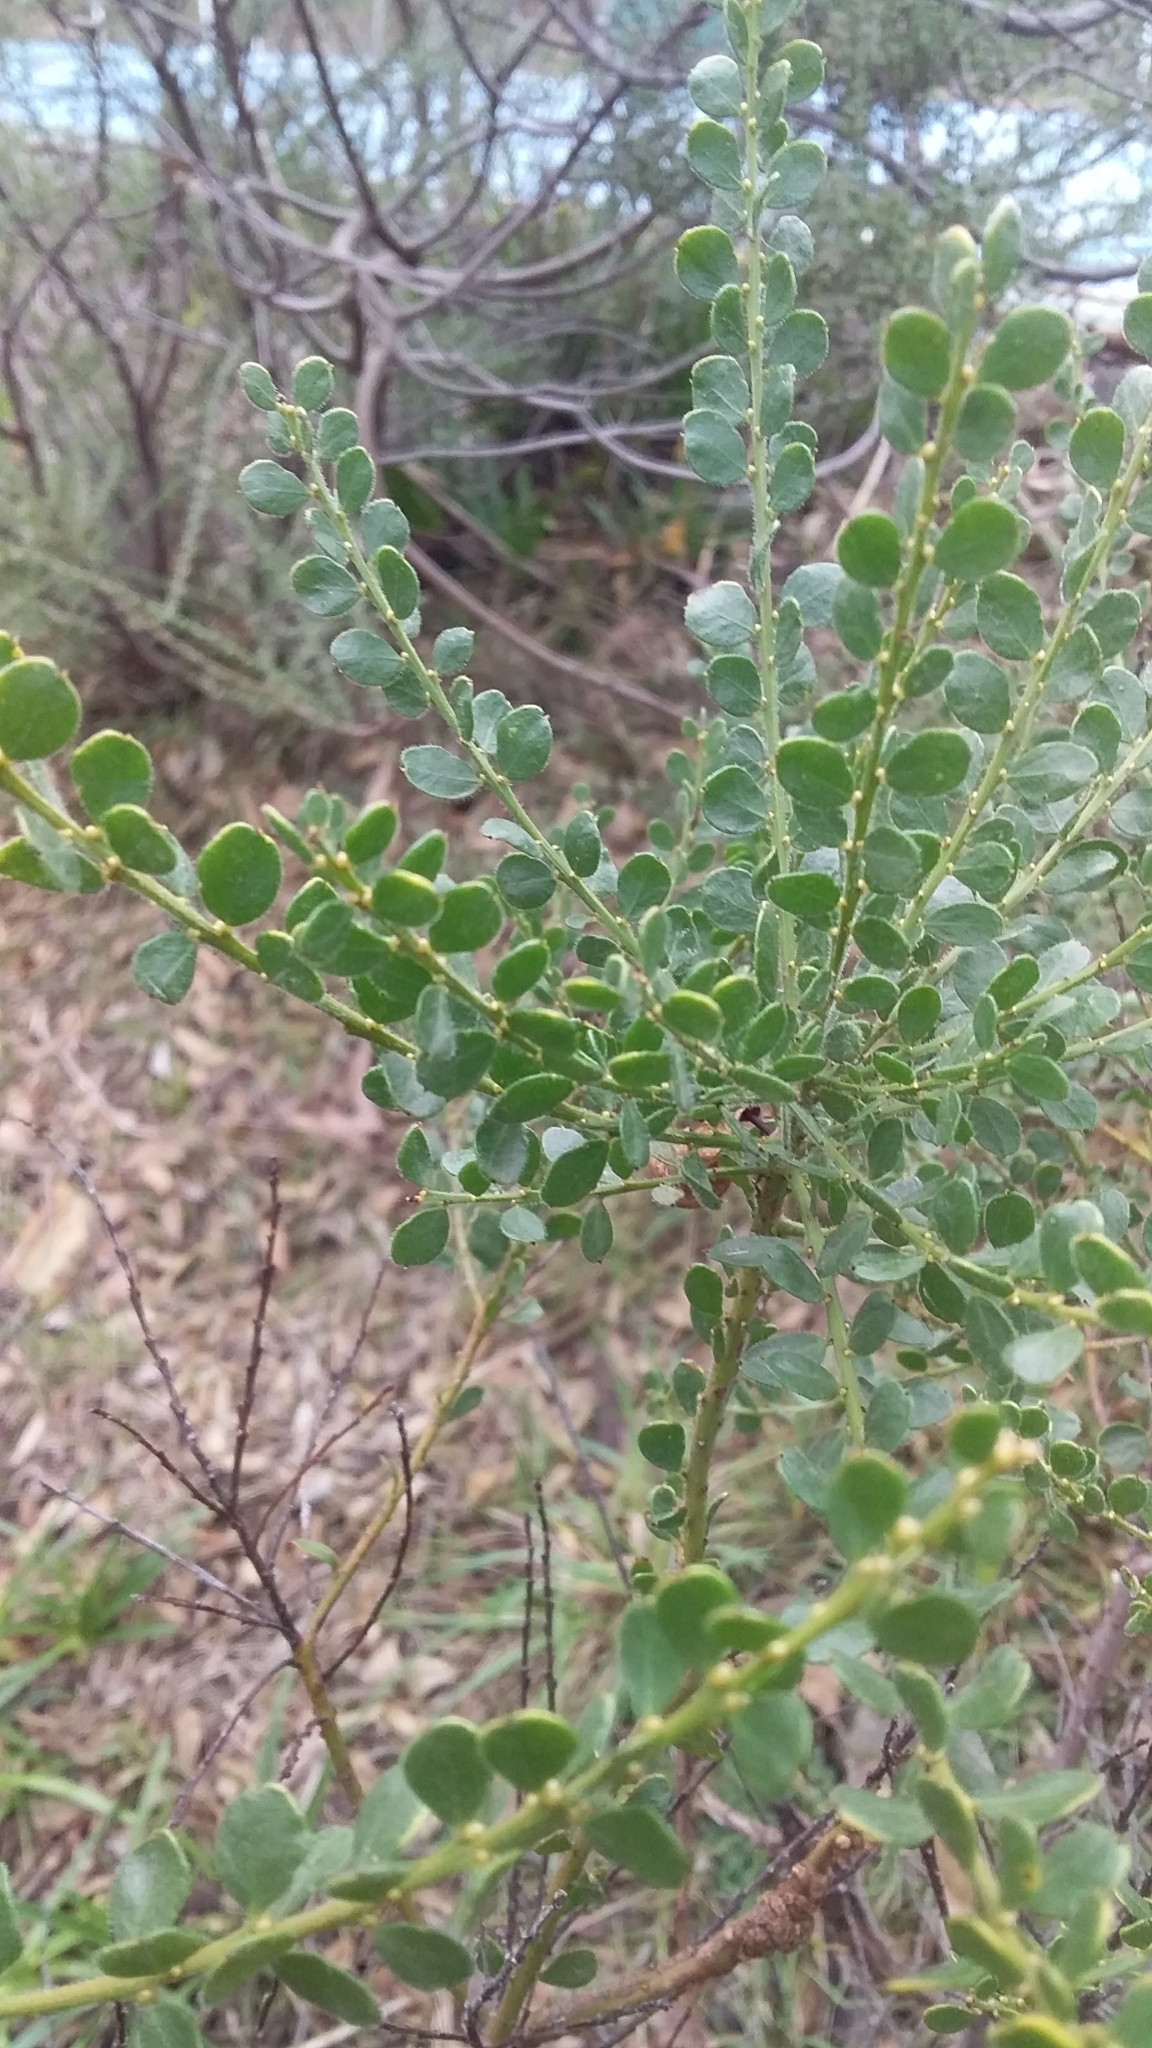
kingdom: Plantae
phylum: Tracheophyta
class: Magnoliopsida
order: Fabales
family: Fabaceae
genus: Acacia
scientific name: Acacia acinacea
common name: Gold-dust acacia
